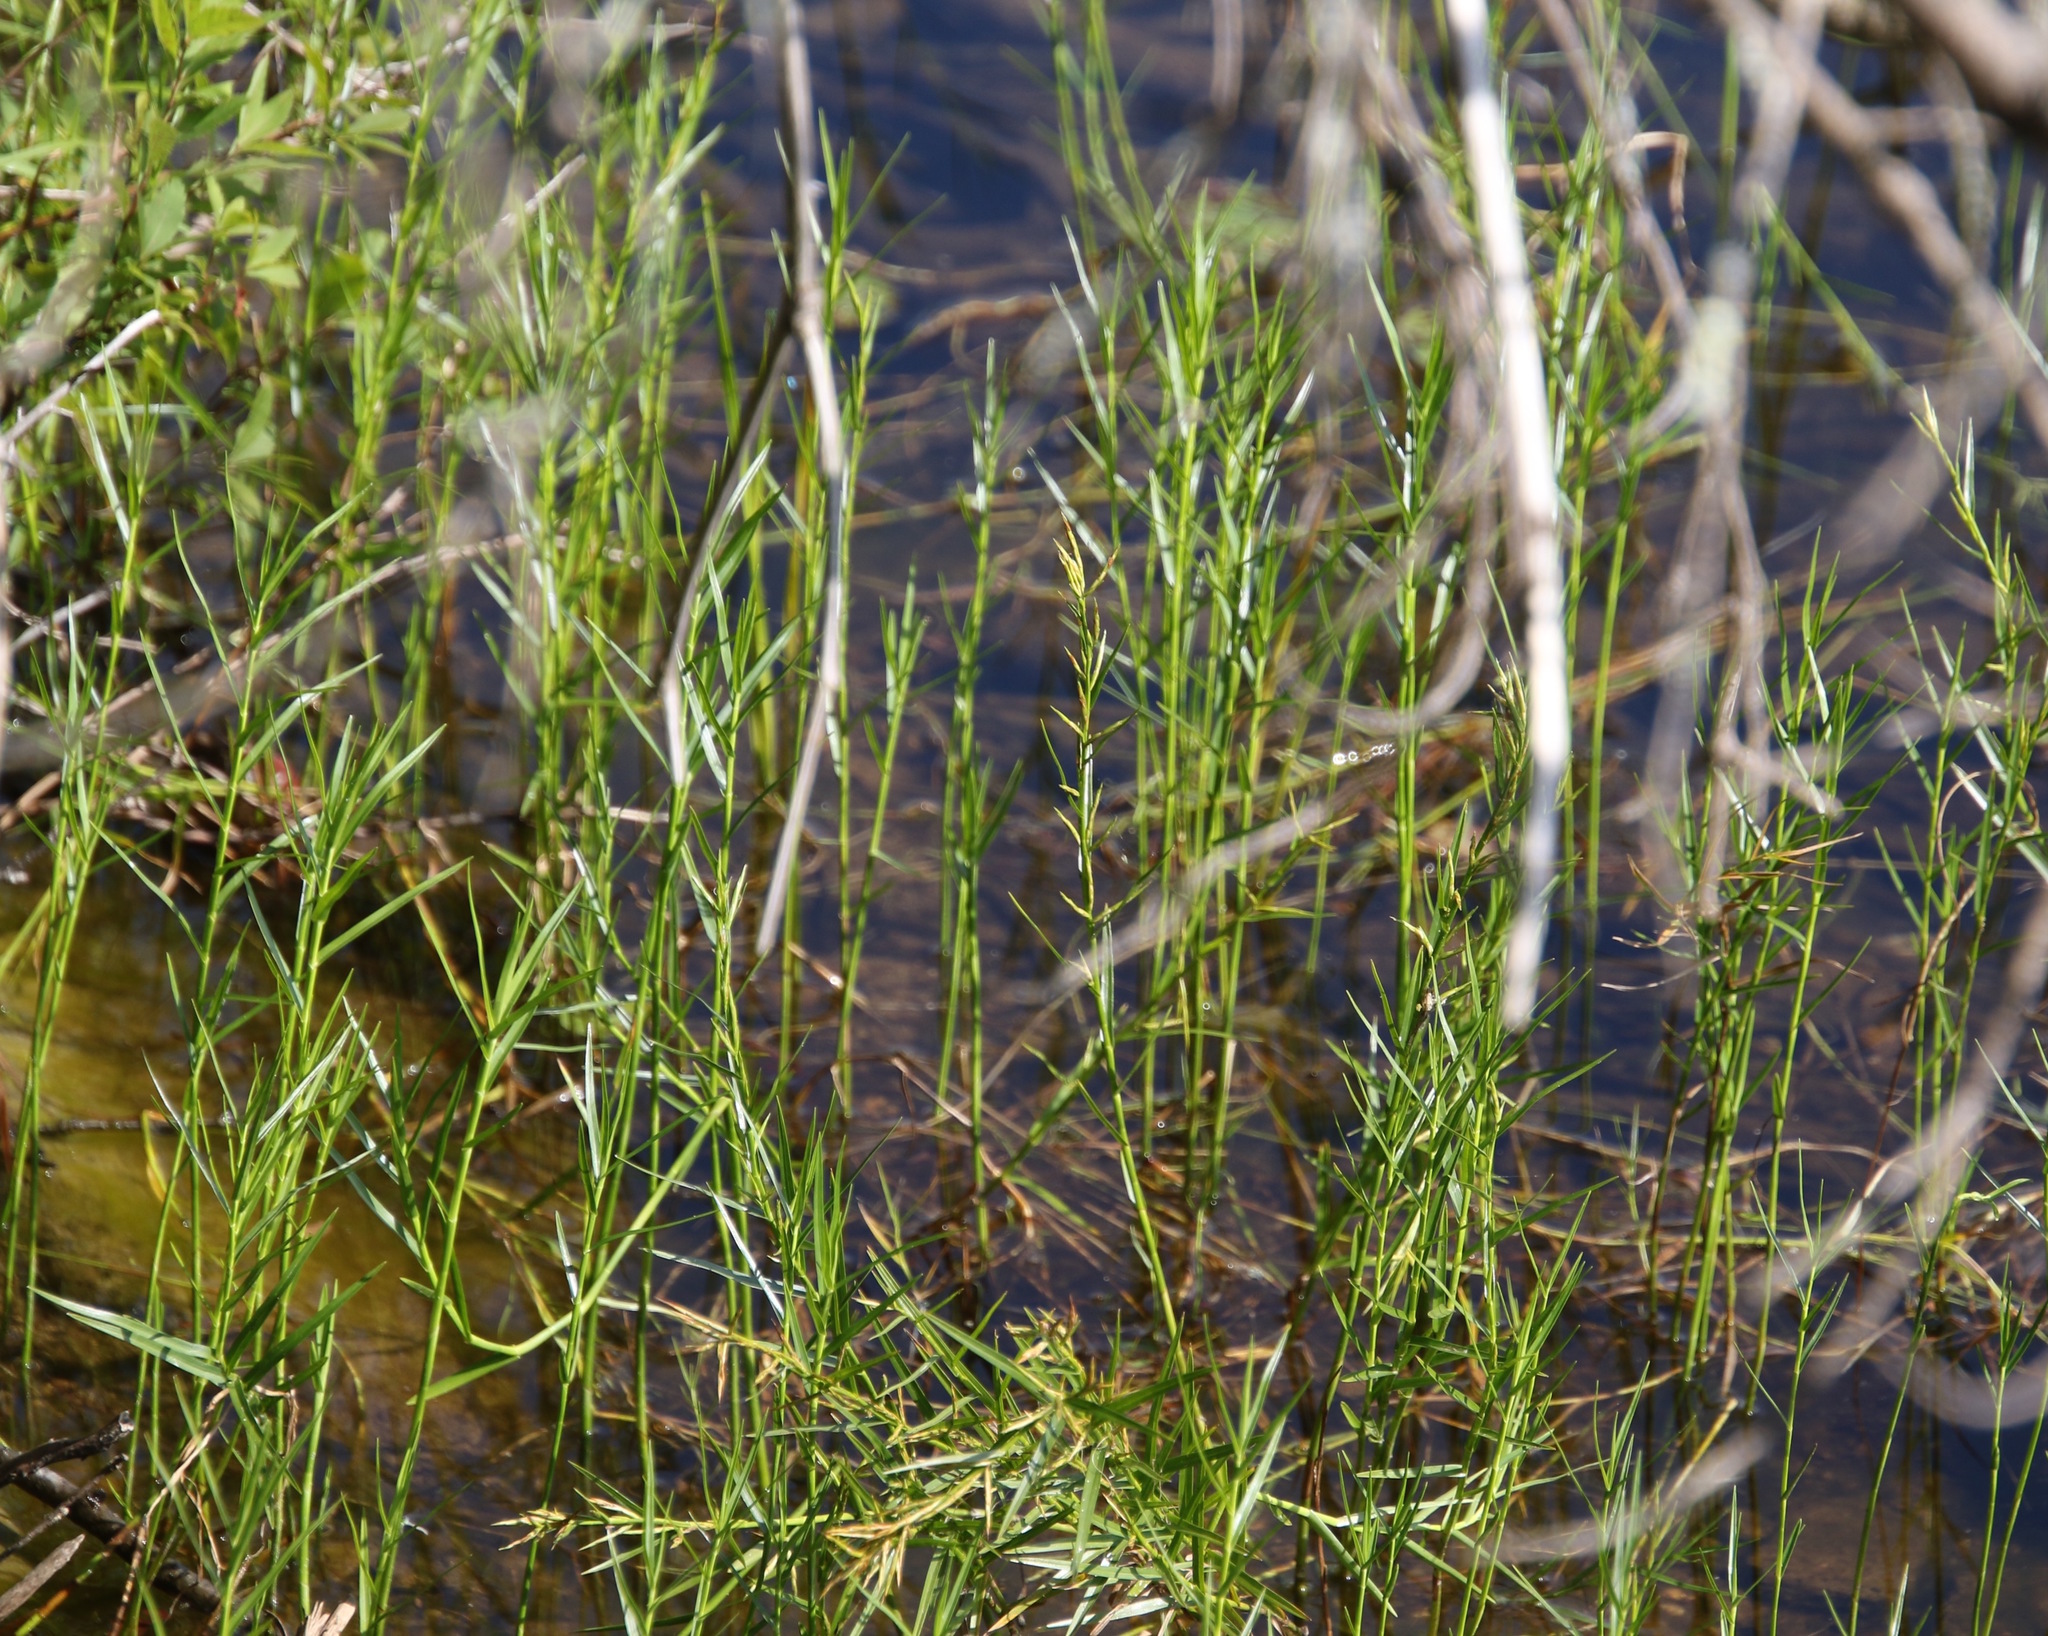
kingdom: Plantae
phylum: Tracheophyta
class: Liliopsida
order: Poales
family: Cyperaceae
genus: Dulichium
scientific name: Dulichium arundinaceum
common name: Three-way sedge
